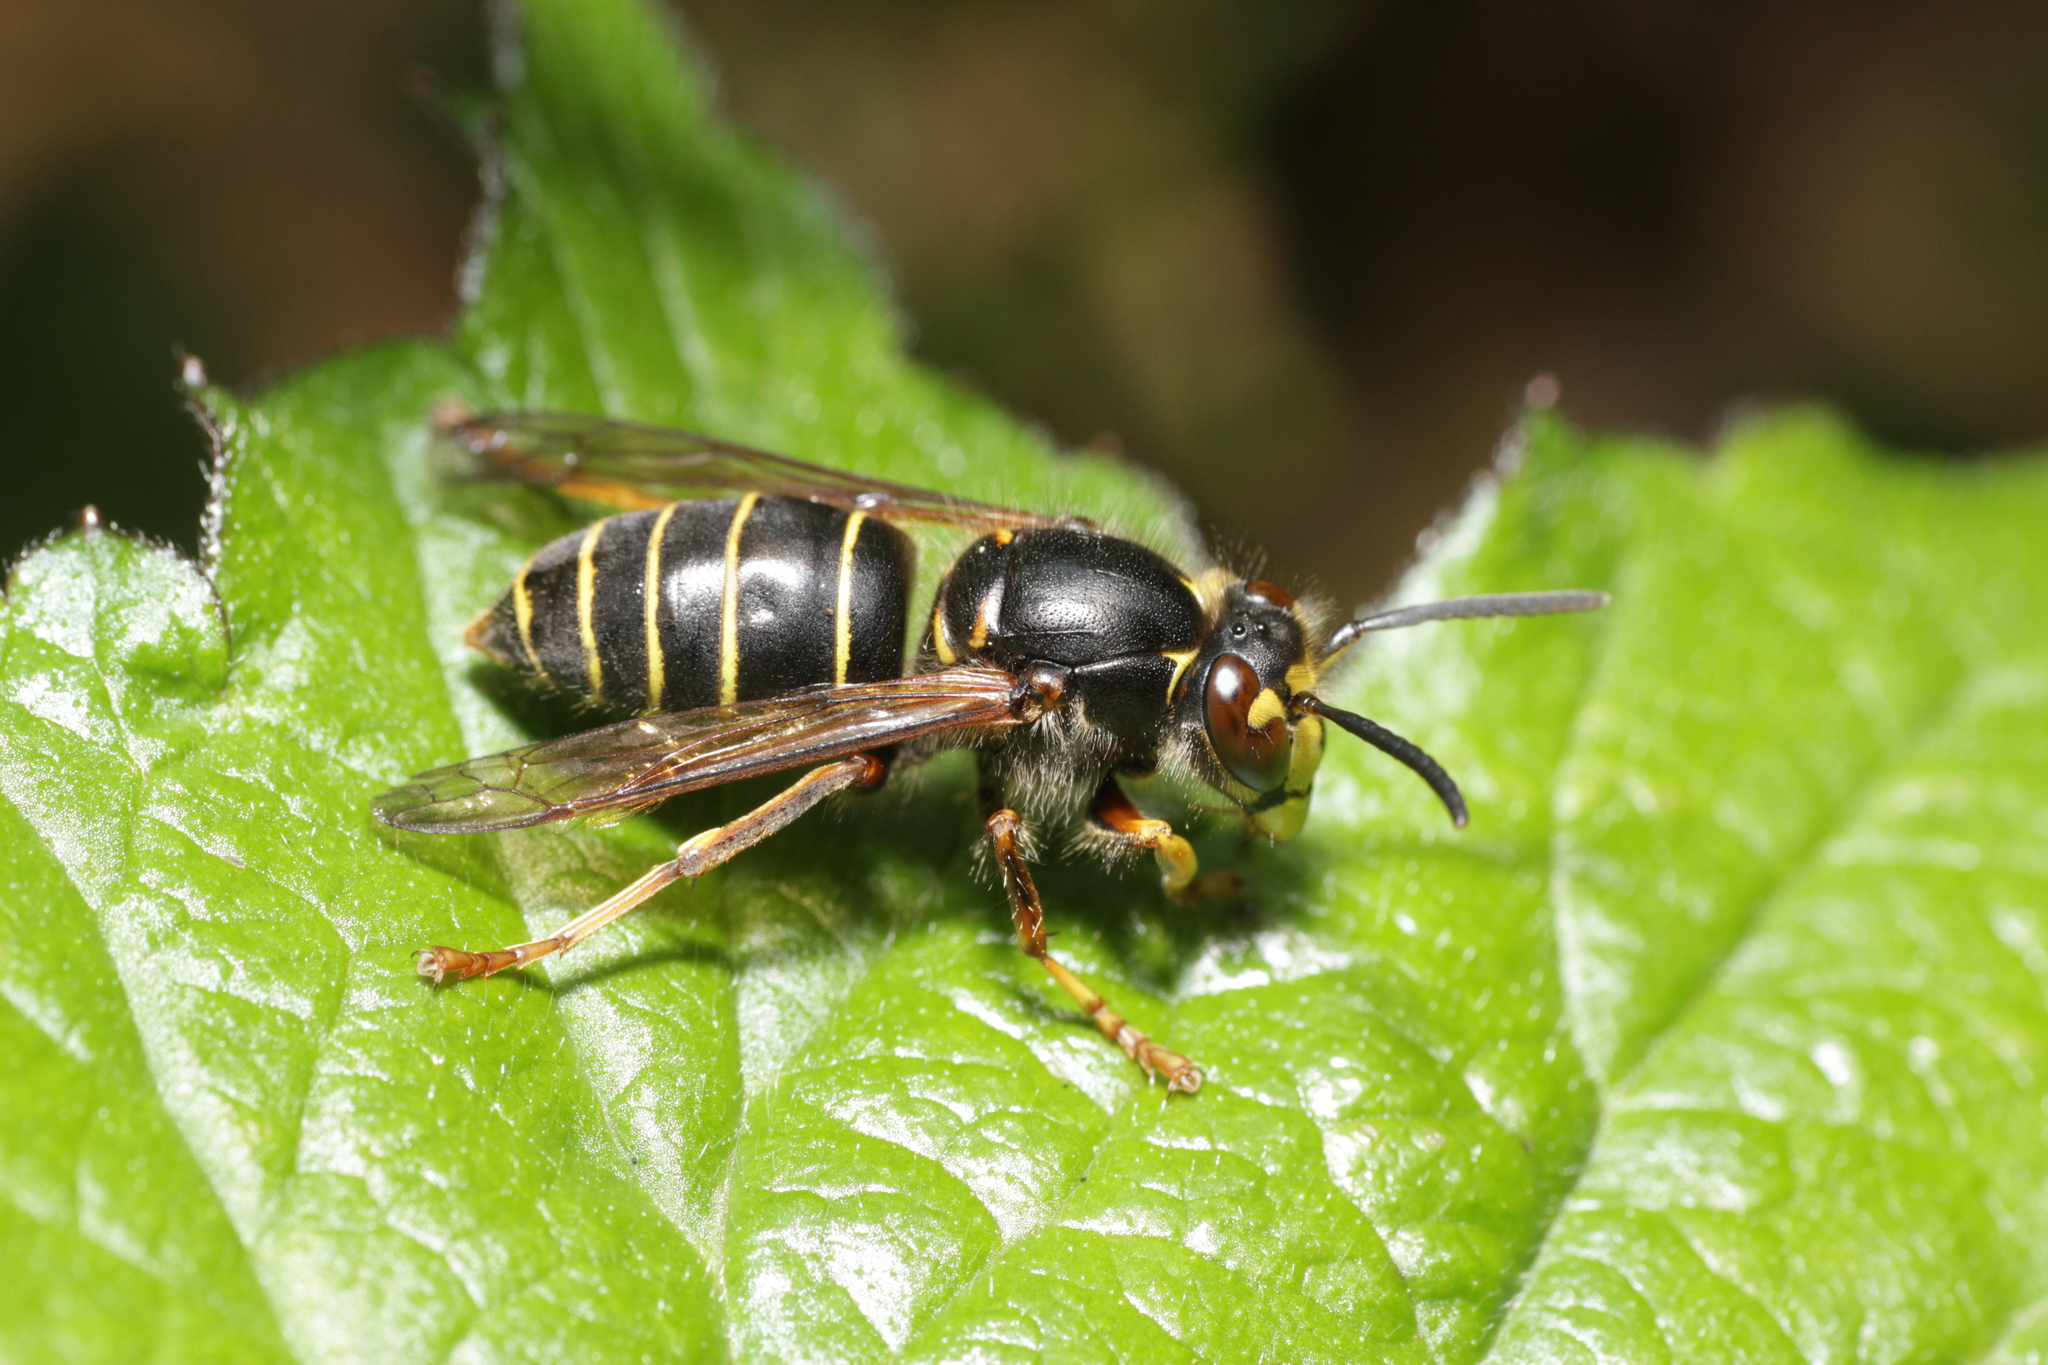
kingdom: Animalia
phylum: Arthropoda
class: Insecta
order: Hymenoptera
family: Vespidae
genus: Dolichovespula
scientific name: Dolichovespula media
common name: Median wasp
